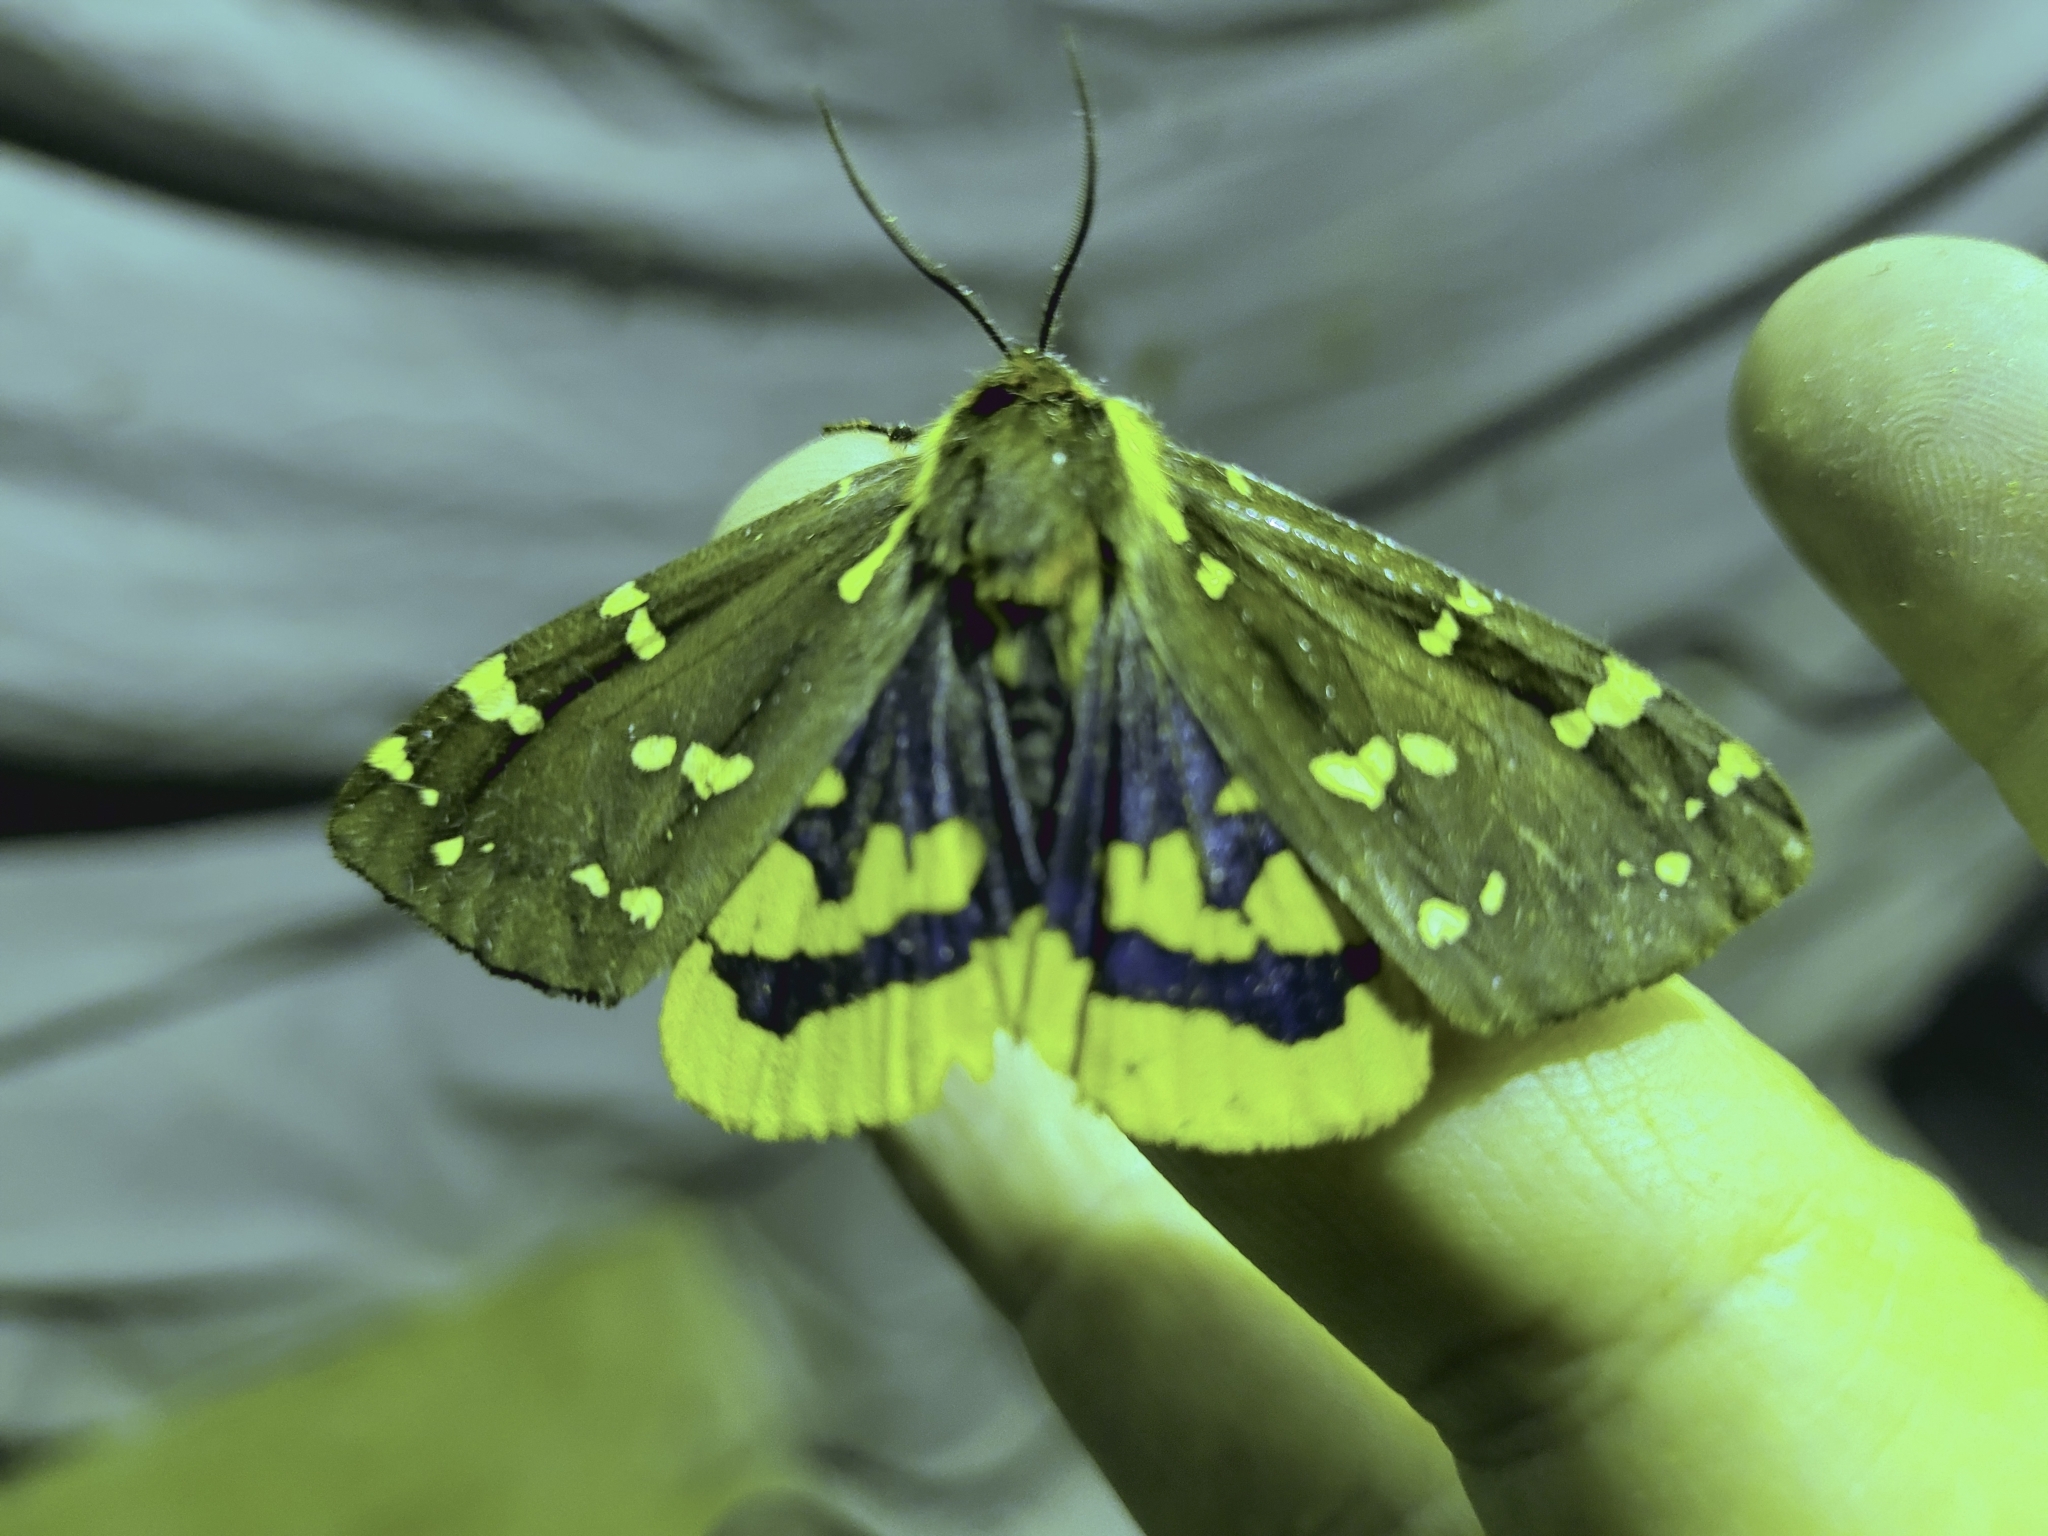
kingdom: Animalia
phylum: Arthropoda
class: Insecta
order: Lepidoptera
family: Erebidae
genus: Arctia
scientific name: Arctia parthenos
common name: St. lawrence tiger moth
